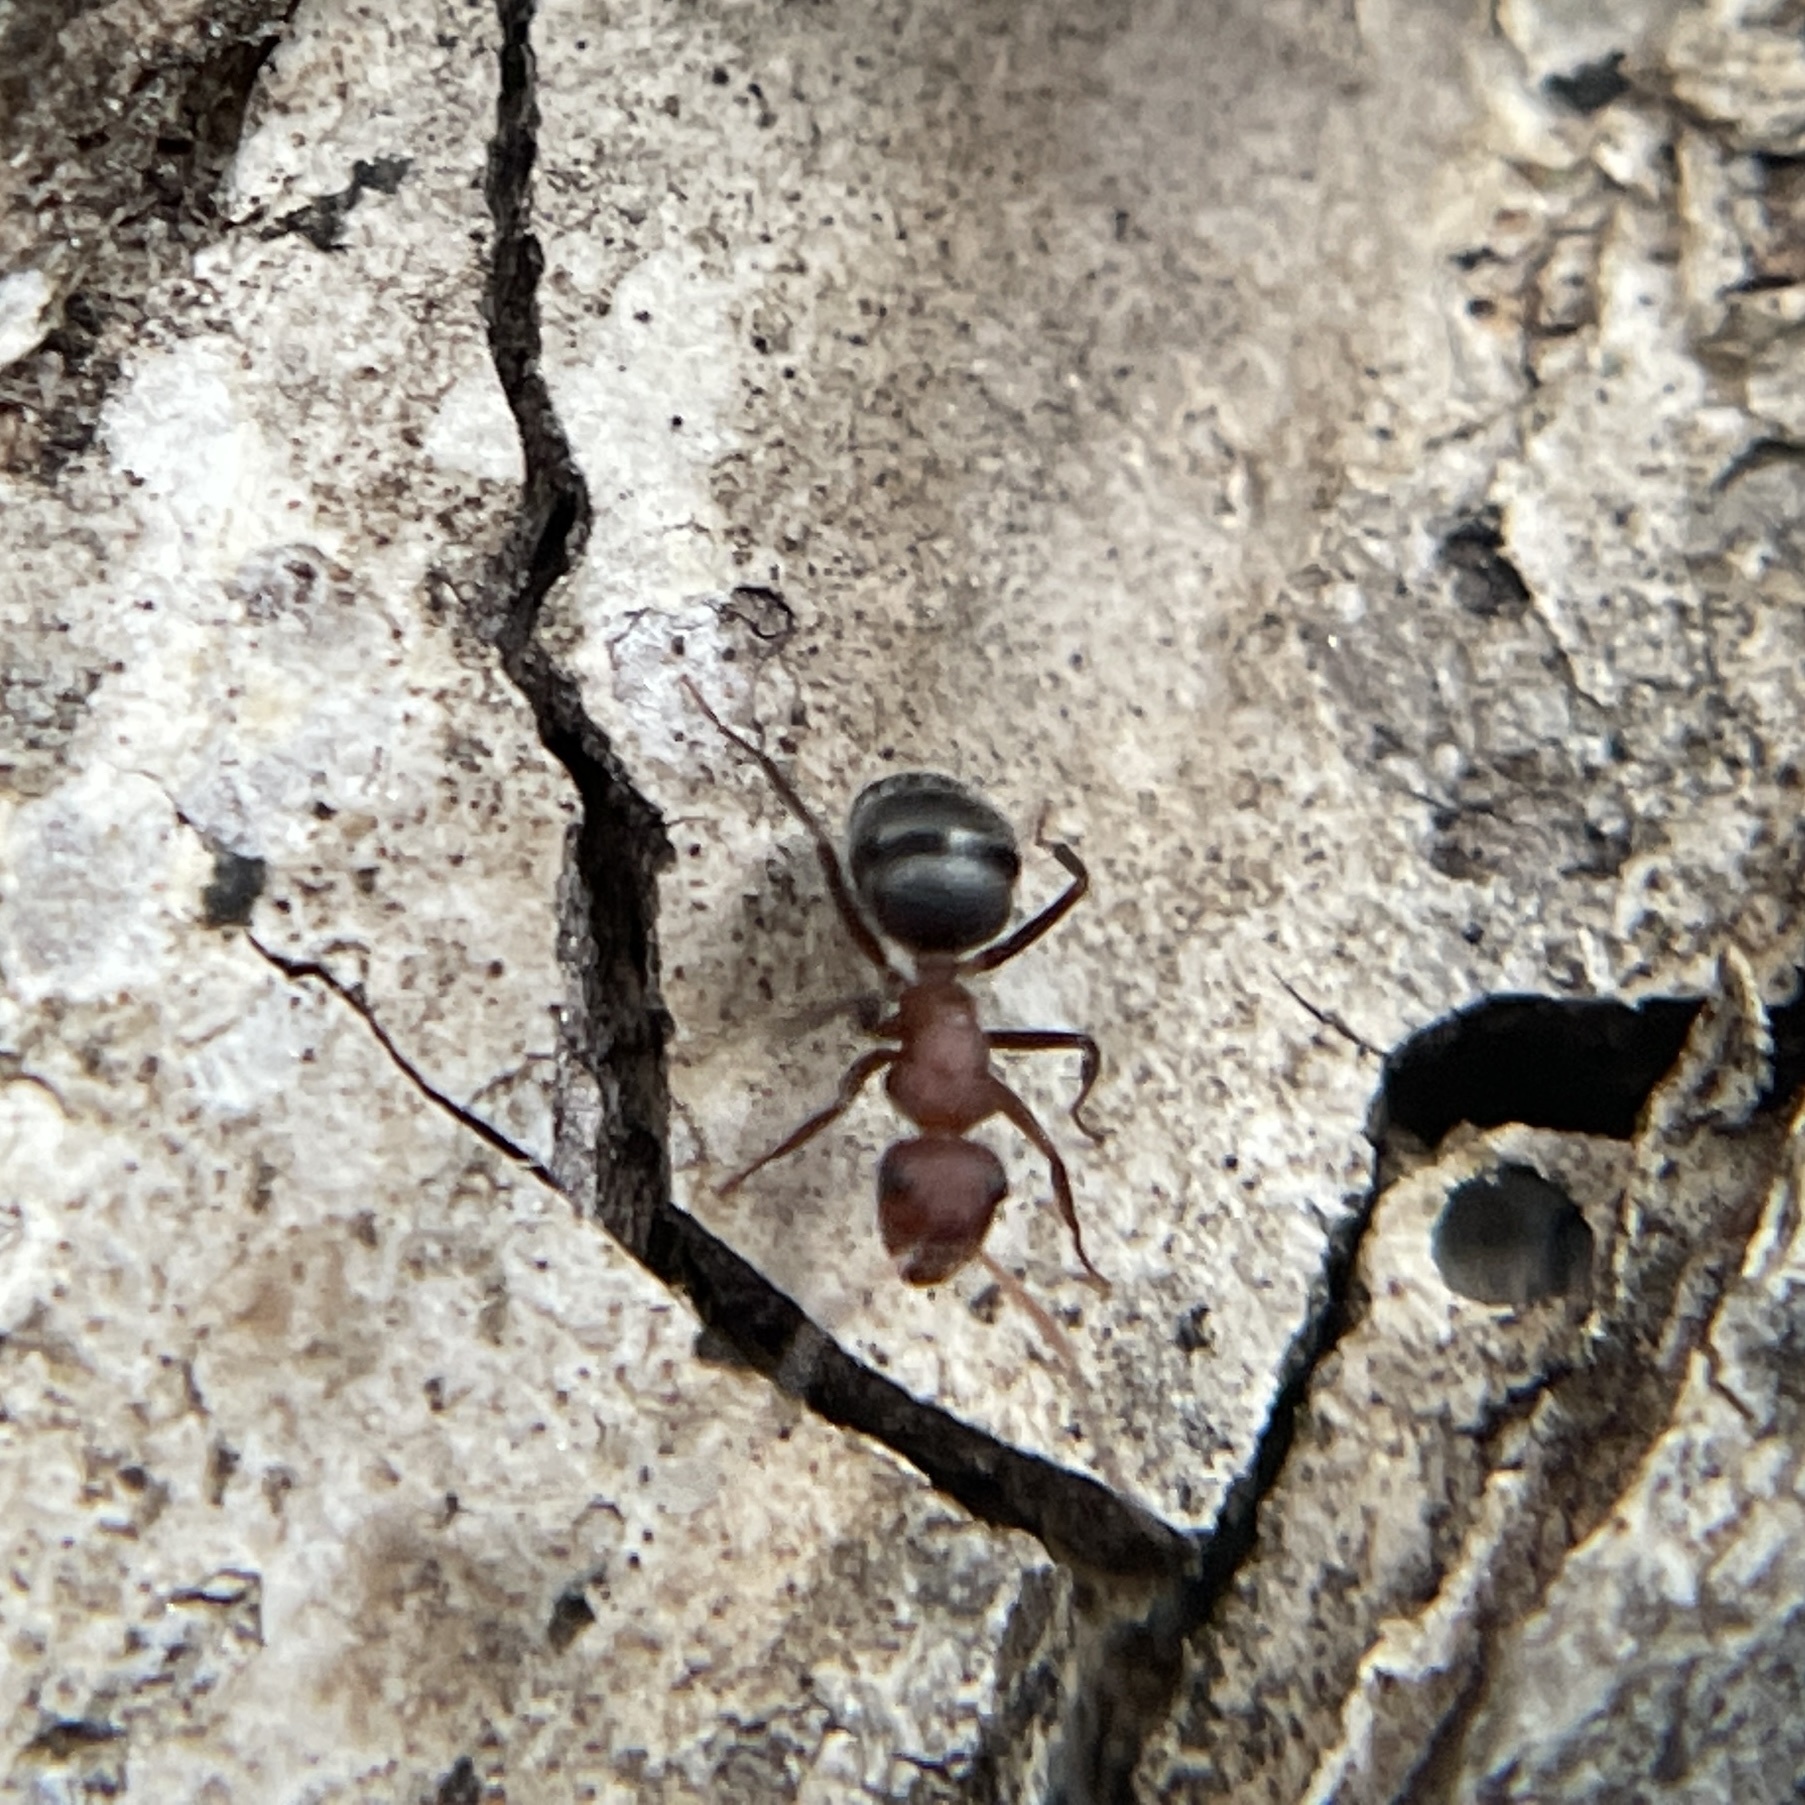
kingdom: Animalia
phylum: Arthropoda
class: Insecta
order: Hymenoptera
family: Formicidae
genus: Camponotus
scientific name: Camponotus planatus
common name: Compact carpenter ant
